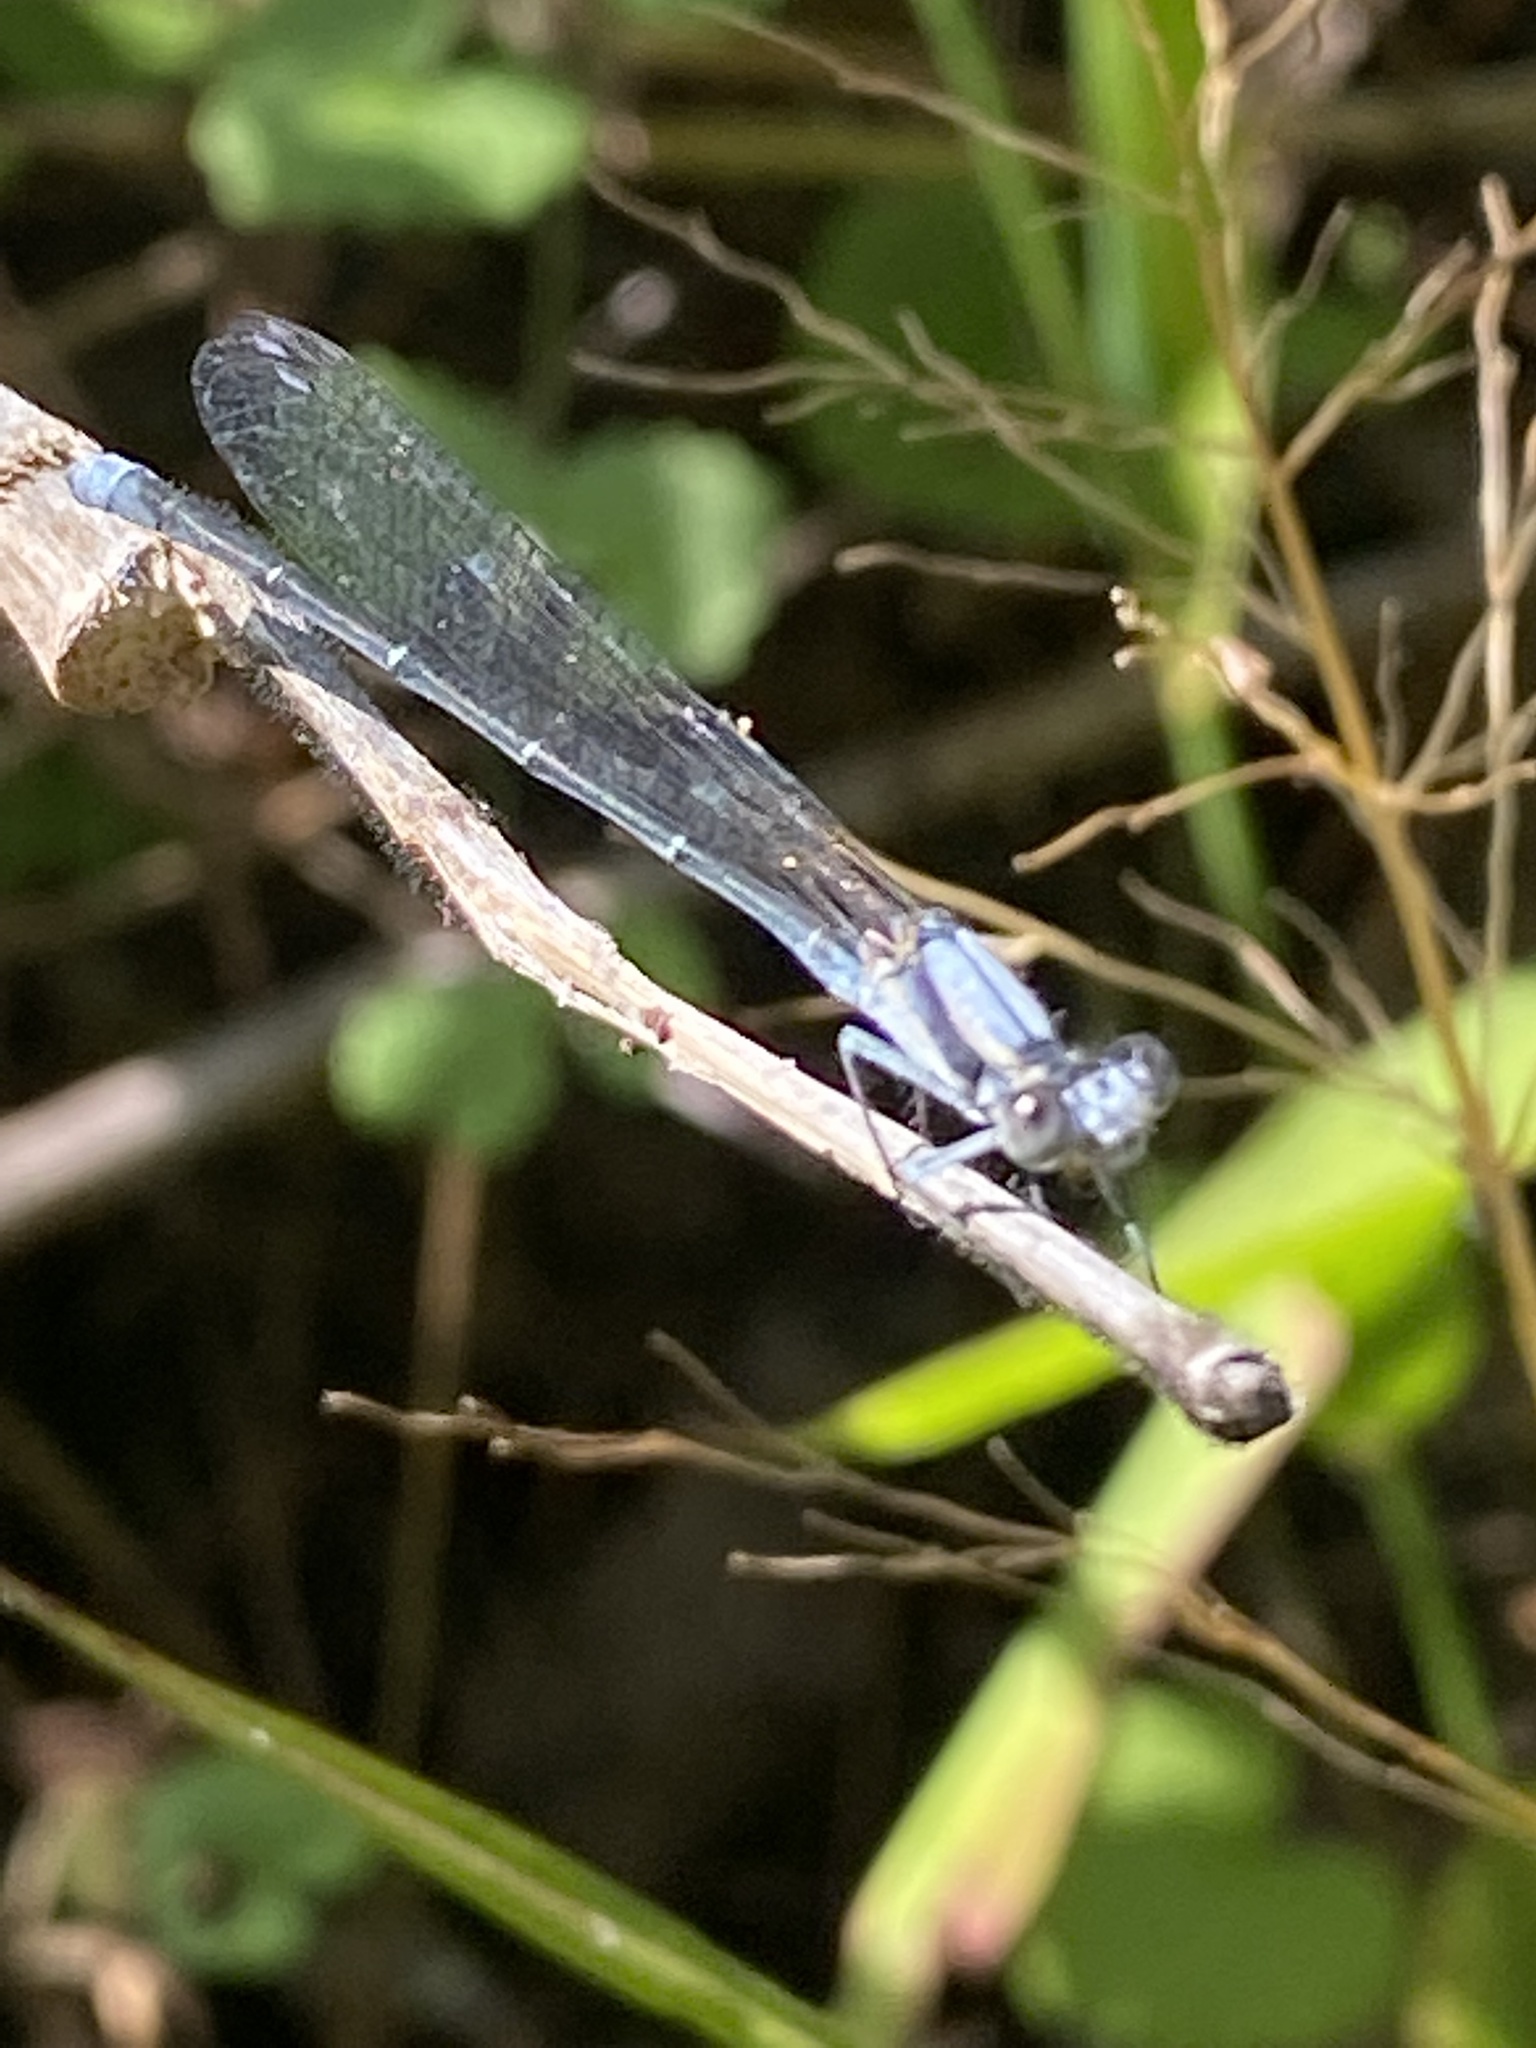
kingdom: Animalia
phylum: Arthropoda
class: Insecta
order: Odonata
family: Coenagrionidae
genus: Argia
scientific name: Argia moesta
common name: Powdered dancer
